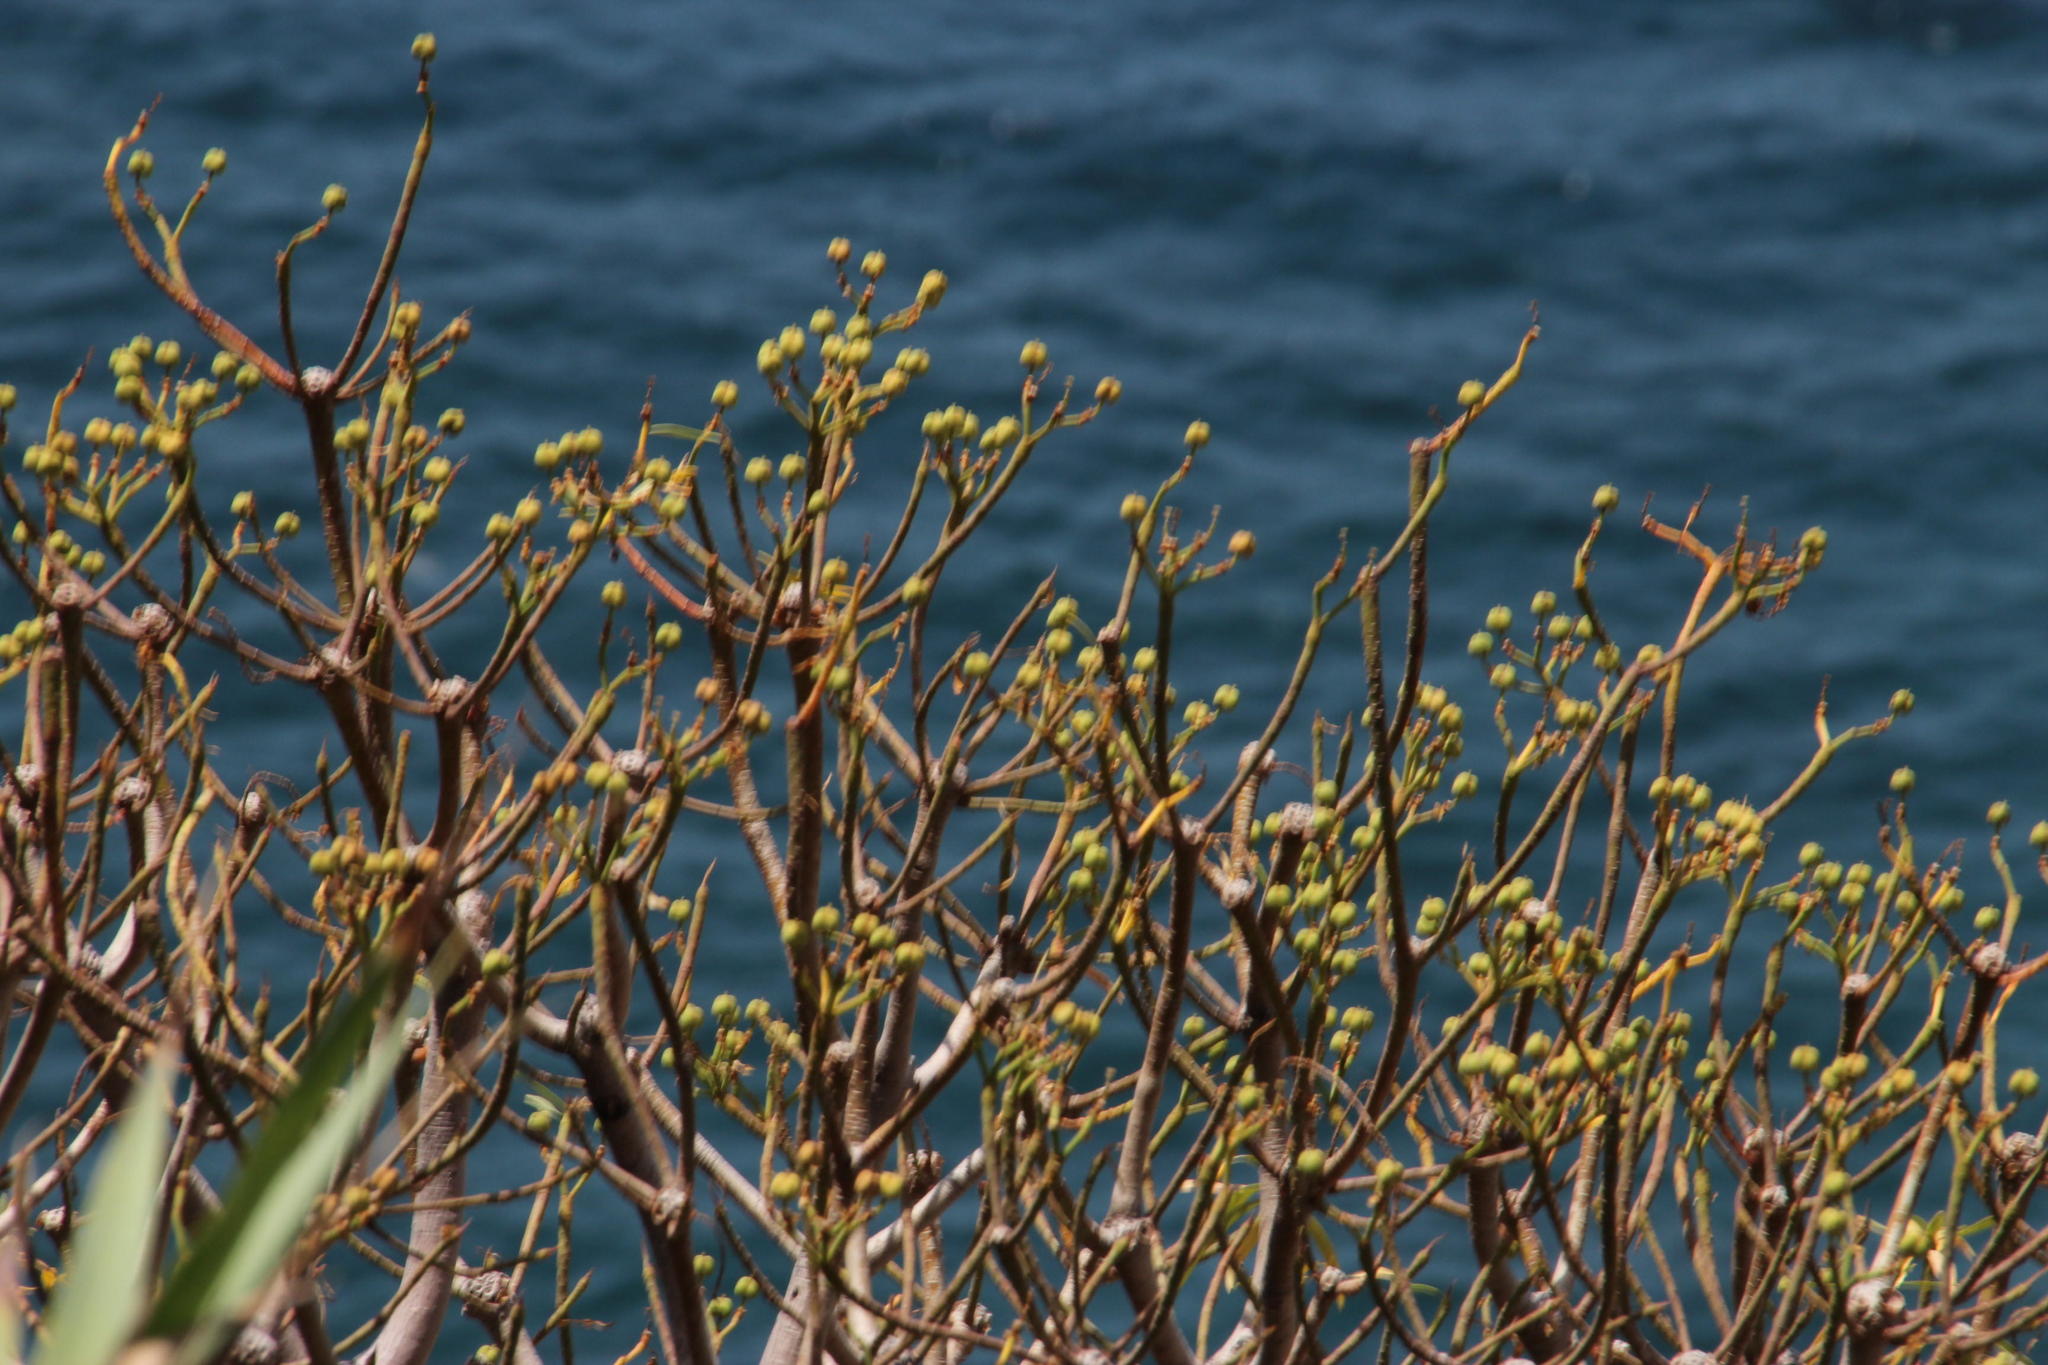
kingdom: Plantae
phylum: Tracheophyta
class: Magnoliopsida
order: Malpighiales
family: Euphorbiaceae
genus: Euphorbia
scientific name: Euphorbia piscatoria
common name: Fish-stunning spurge
